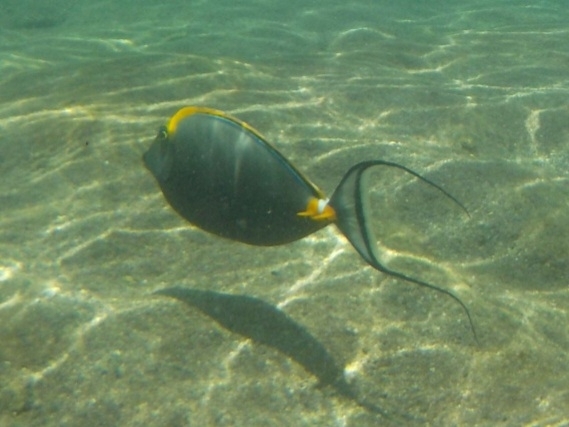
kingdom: Animalia
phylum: Chordata
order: Perciformes
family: Acanthuridae
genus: Naso
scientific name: Naso elegans
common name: Orangespine unicornfish
